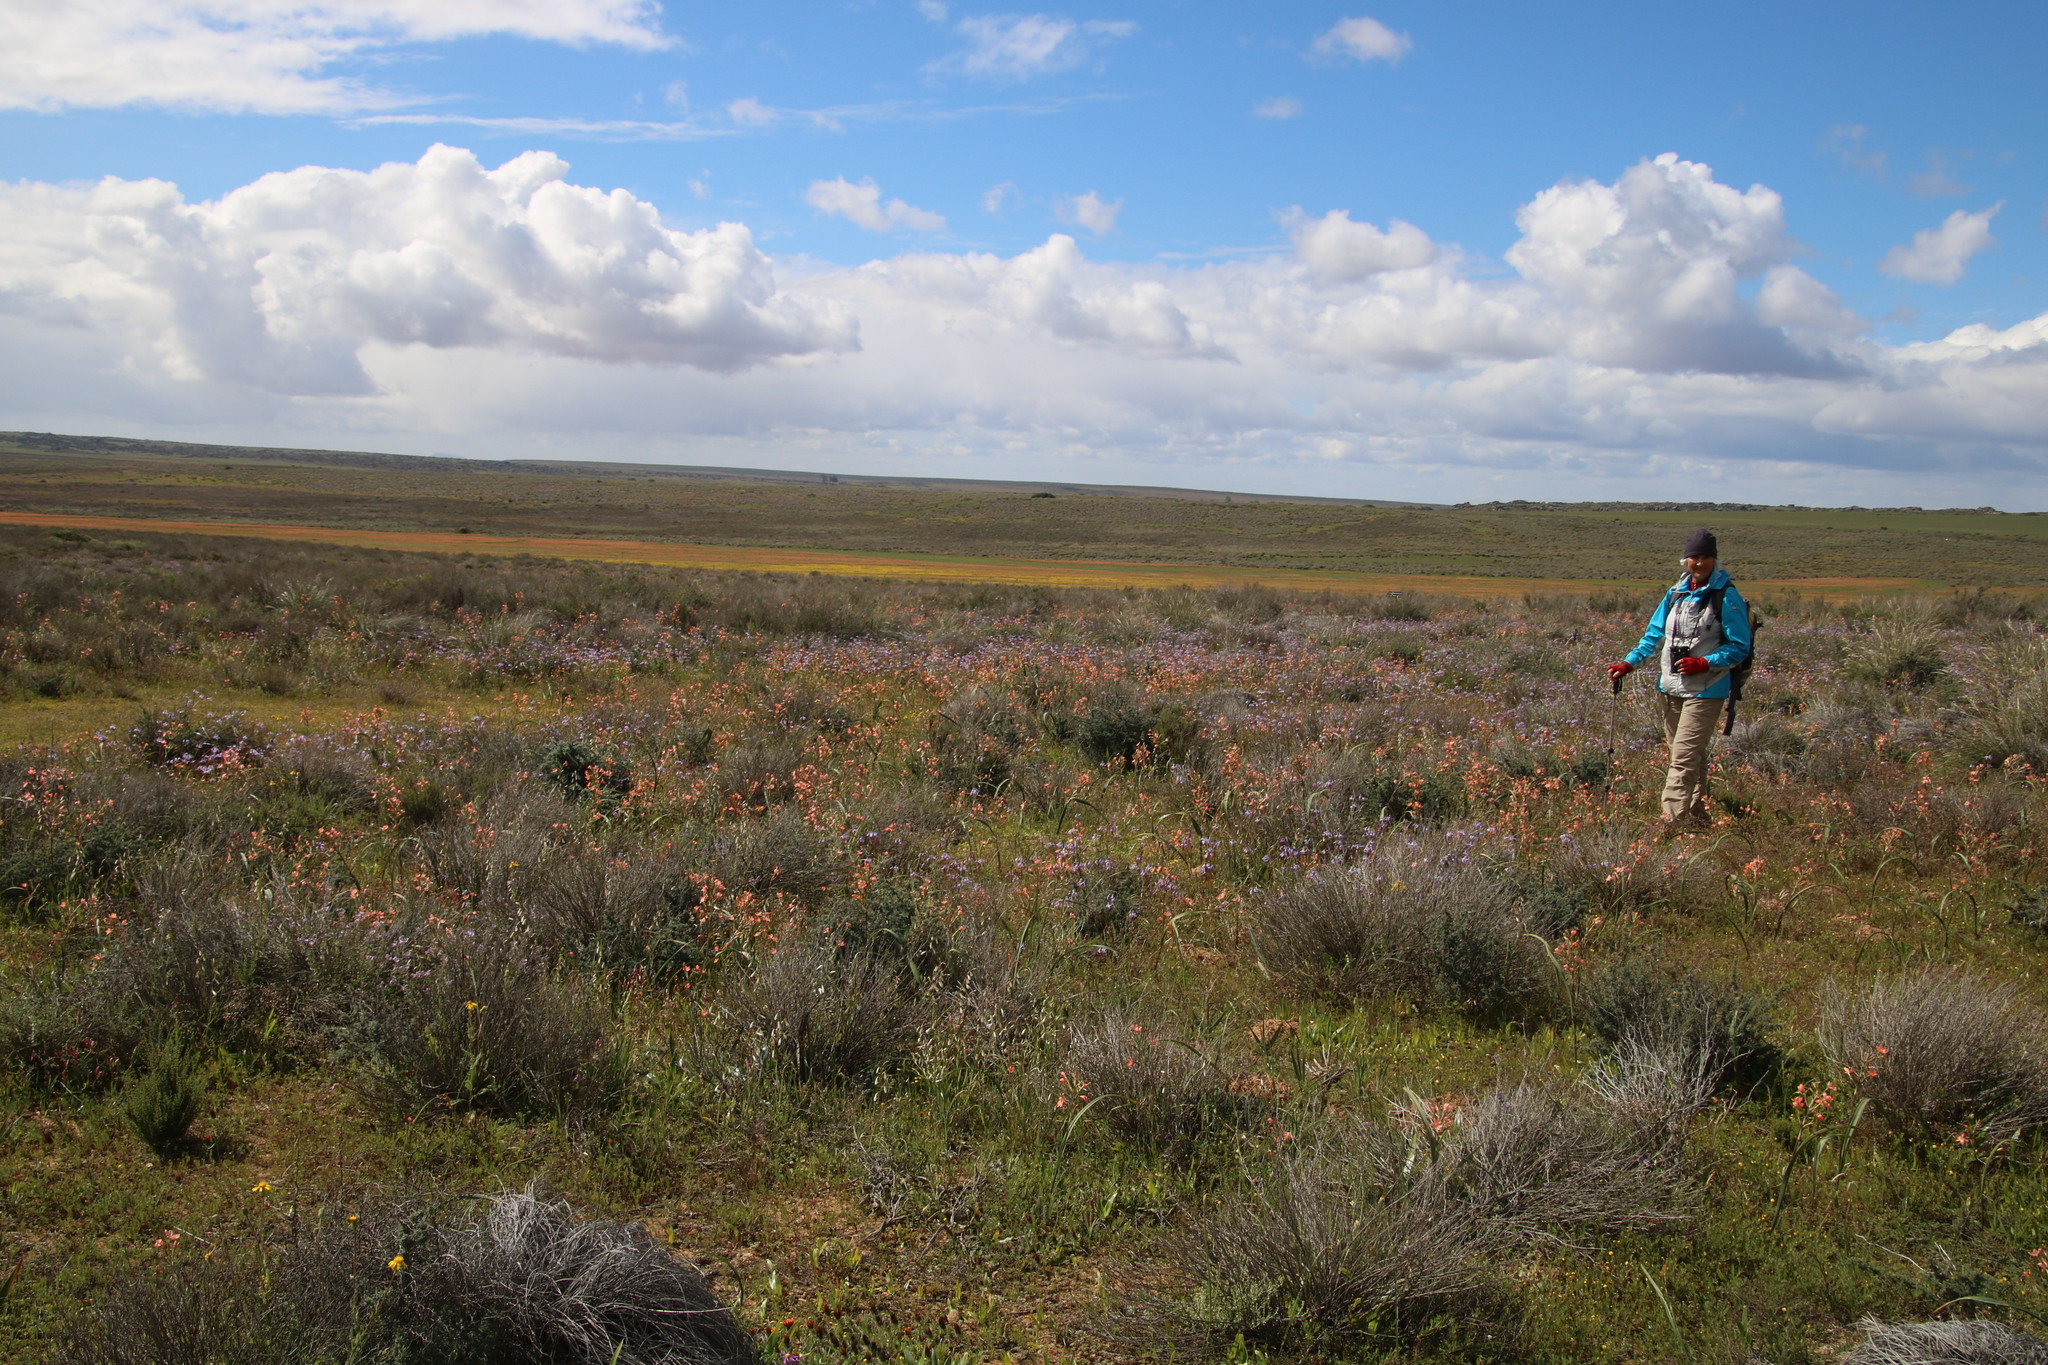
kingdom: Plantae
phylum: Tracheophyta
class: Liliopsida
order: Asparagales
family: Iridaceae
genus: Moraea
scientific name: Moraea miniata
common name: Two-leaf cape-tulip
